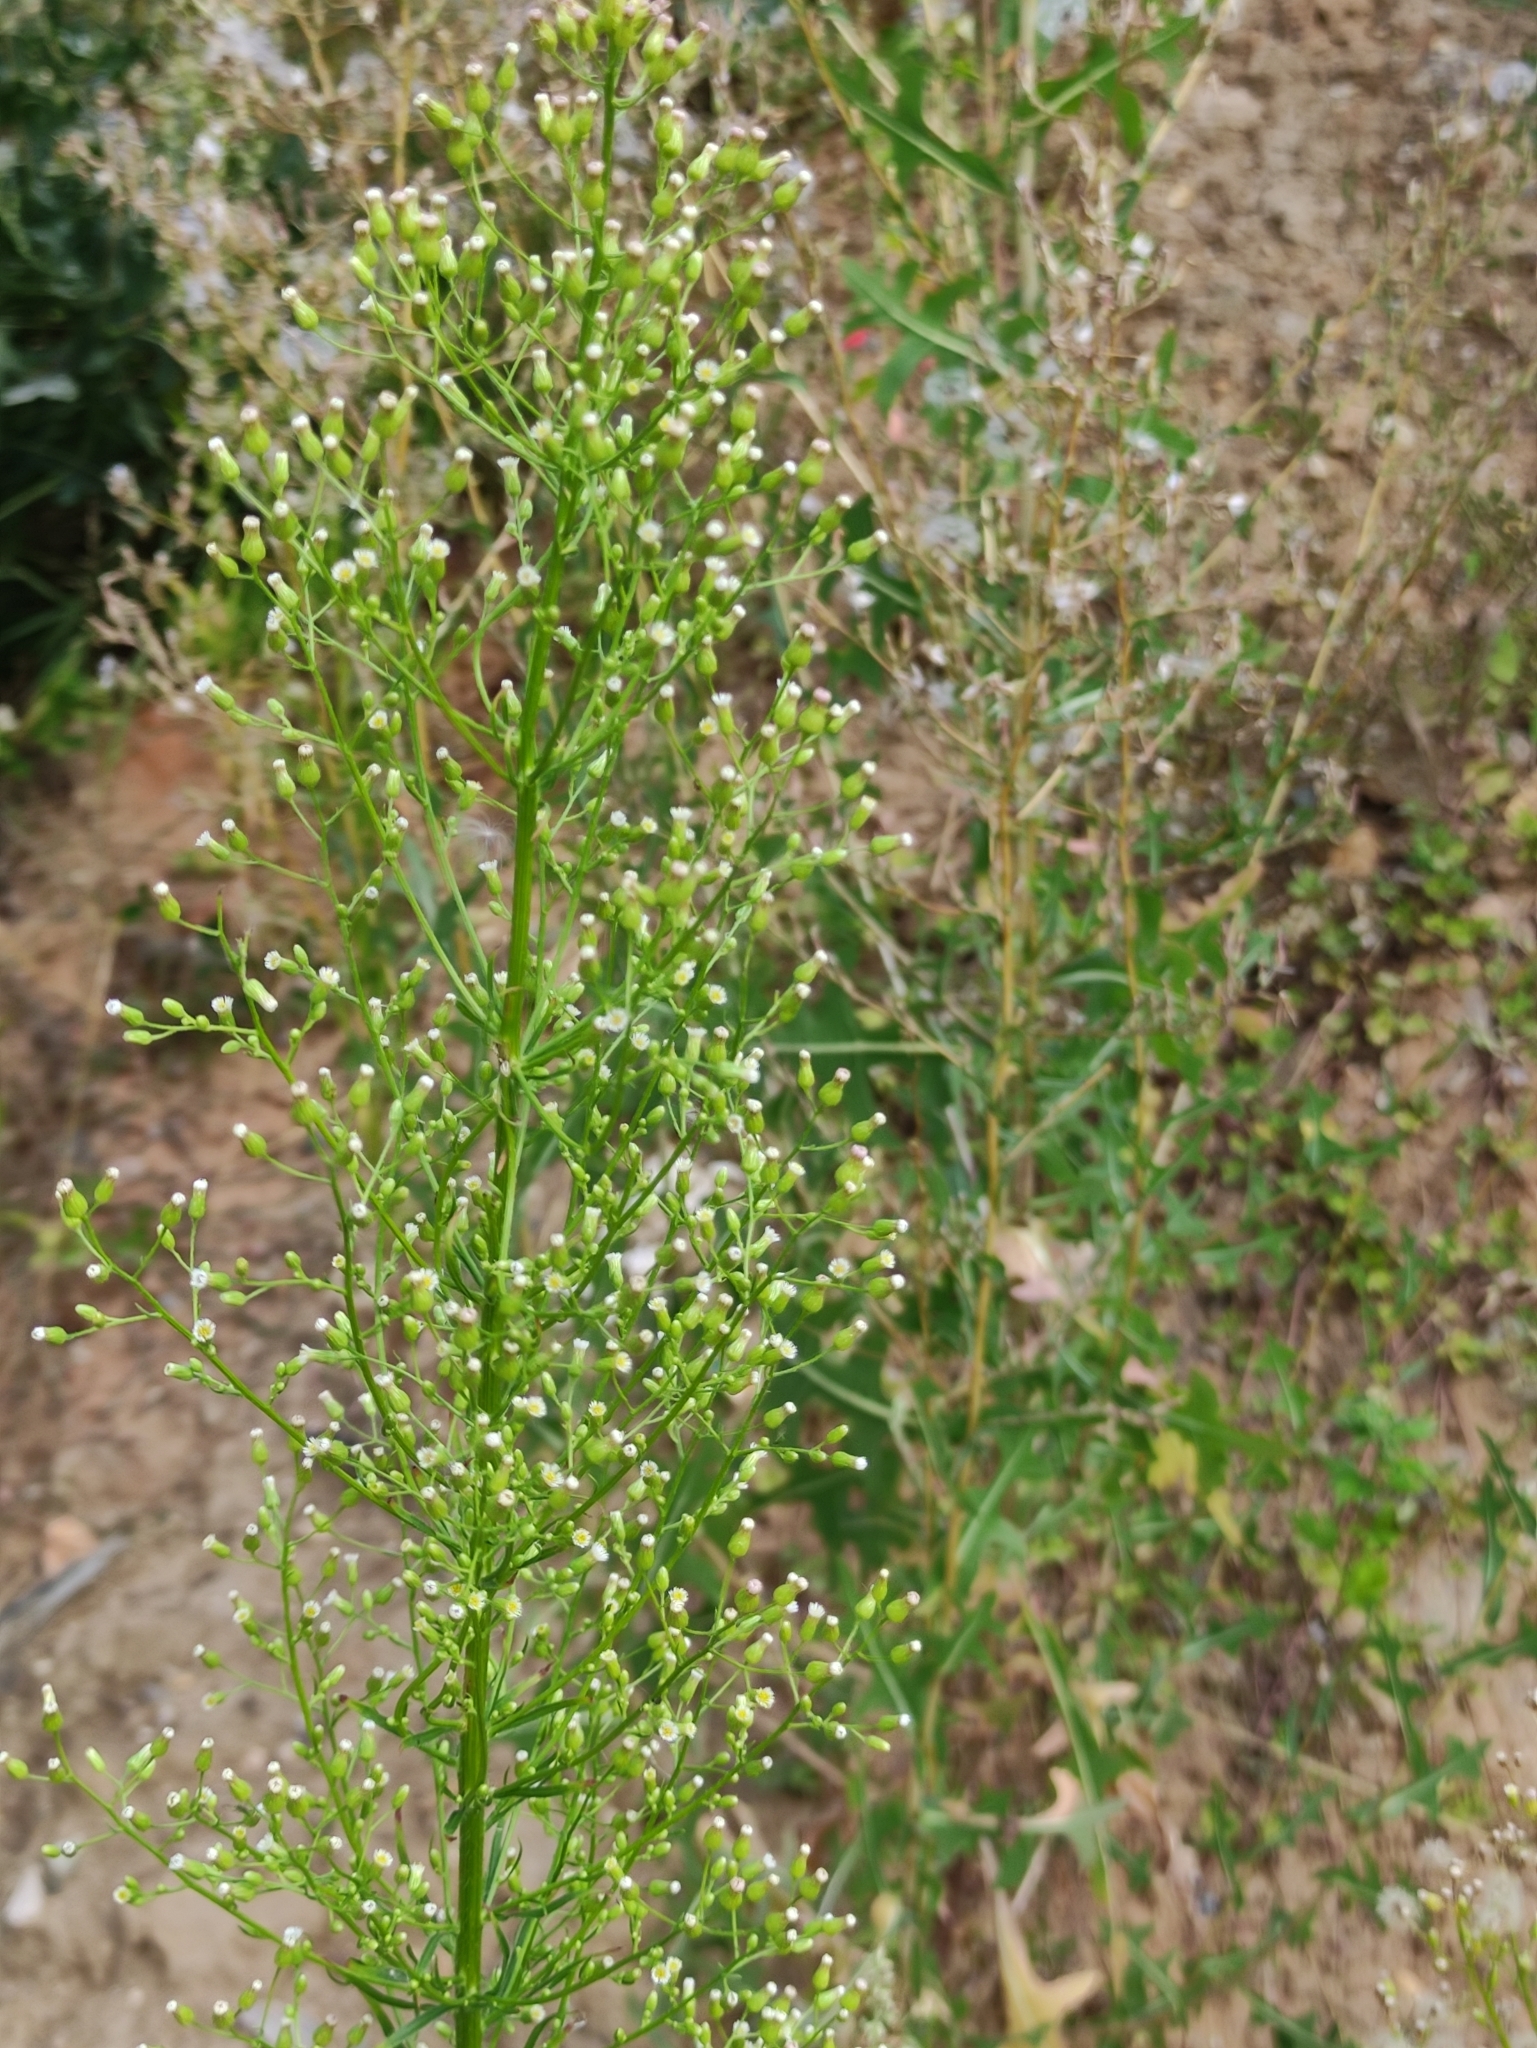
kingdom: Plantae
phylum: Tracheophyta
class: Magnoliopsida
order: Asterales
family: Asteraceae
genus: Erigeron
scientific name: Erigeron canadensis
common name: Canadian fleabane
